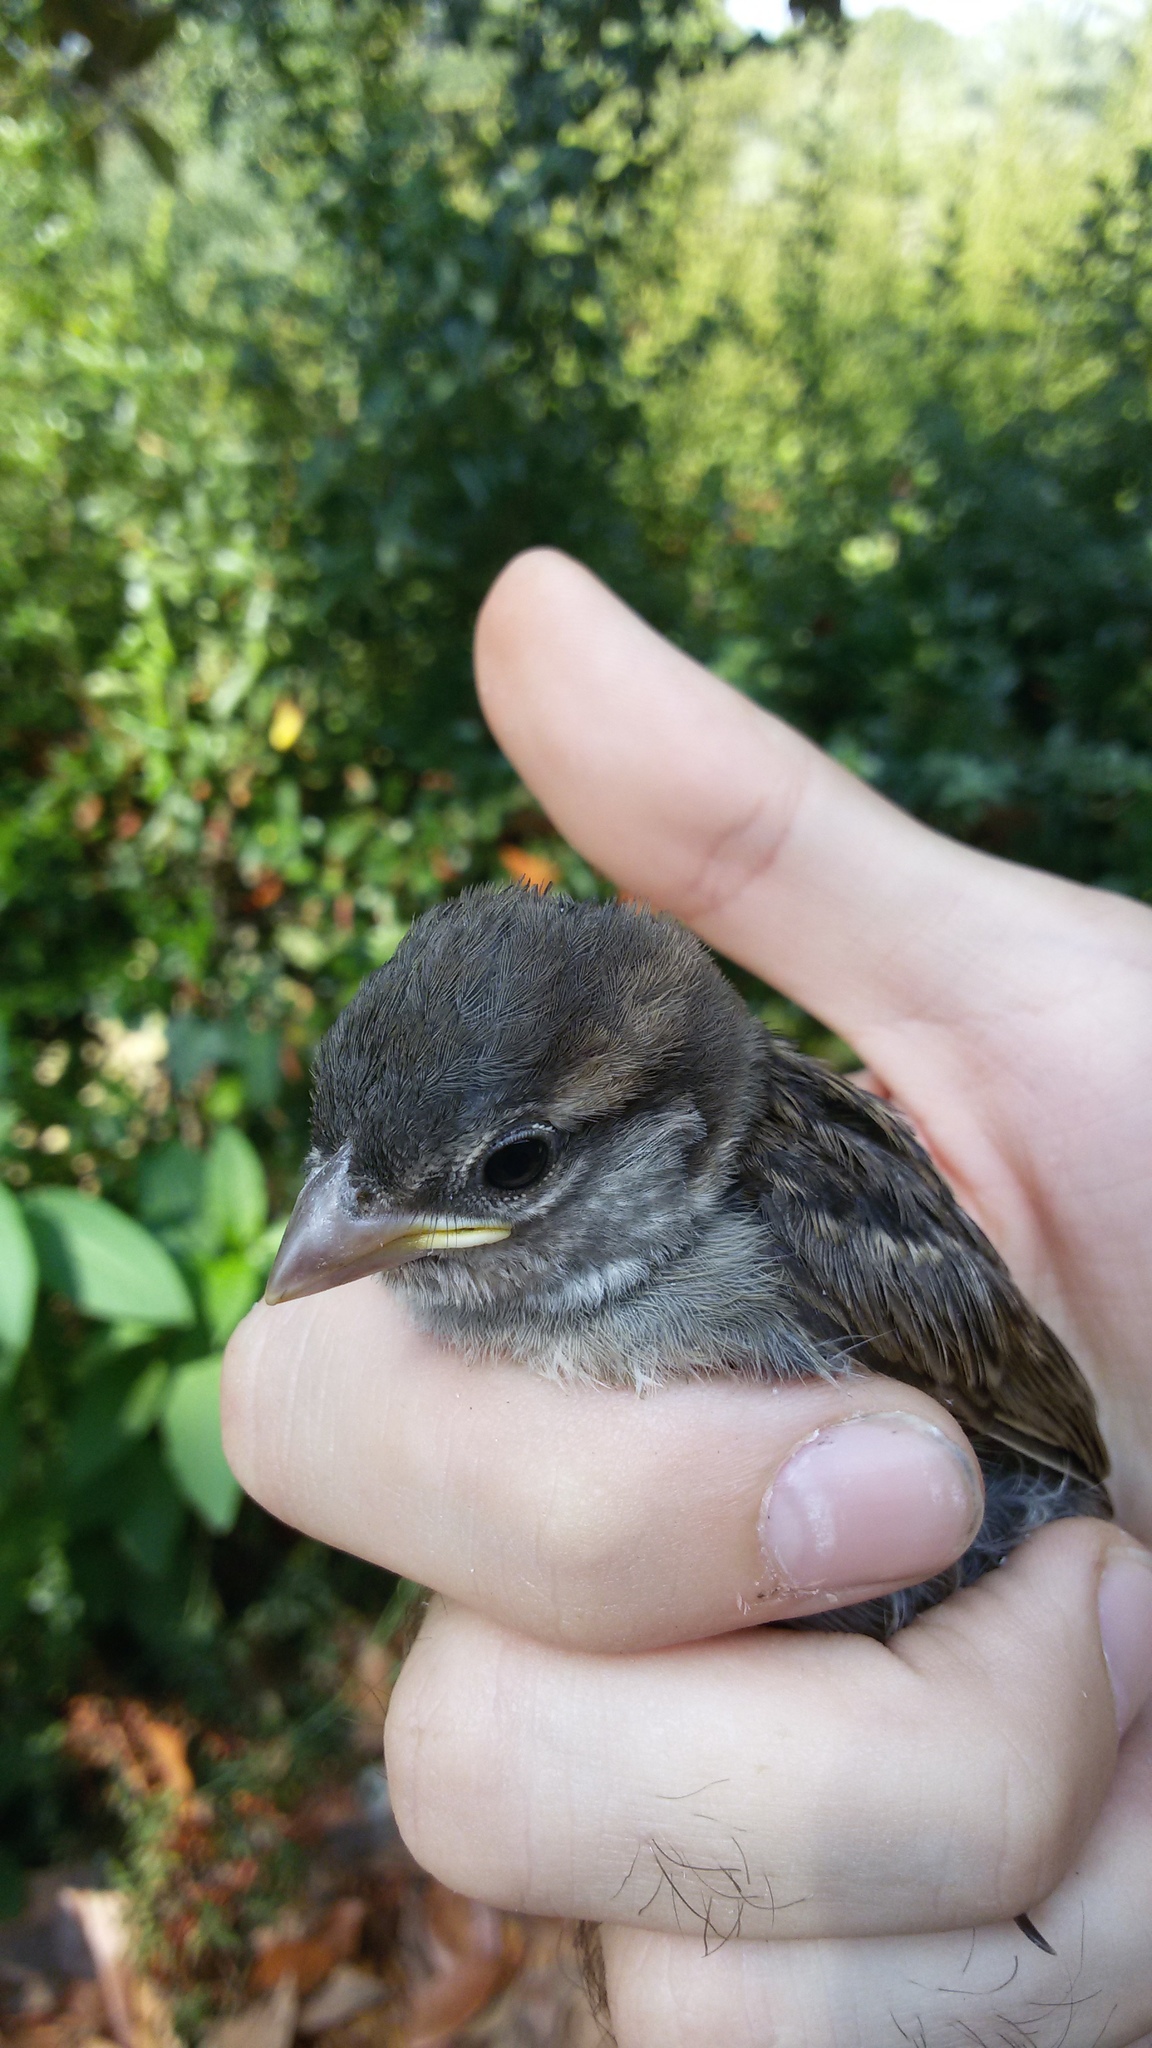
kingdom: Animalia
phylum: Chordata
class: Aves
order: Passeriformes
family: Passeridae
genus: Passer
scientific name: Passer italiae
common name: Italian sparrow
